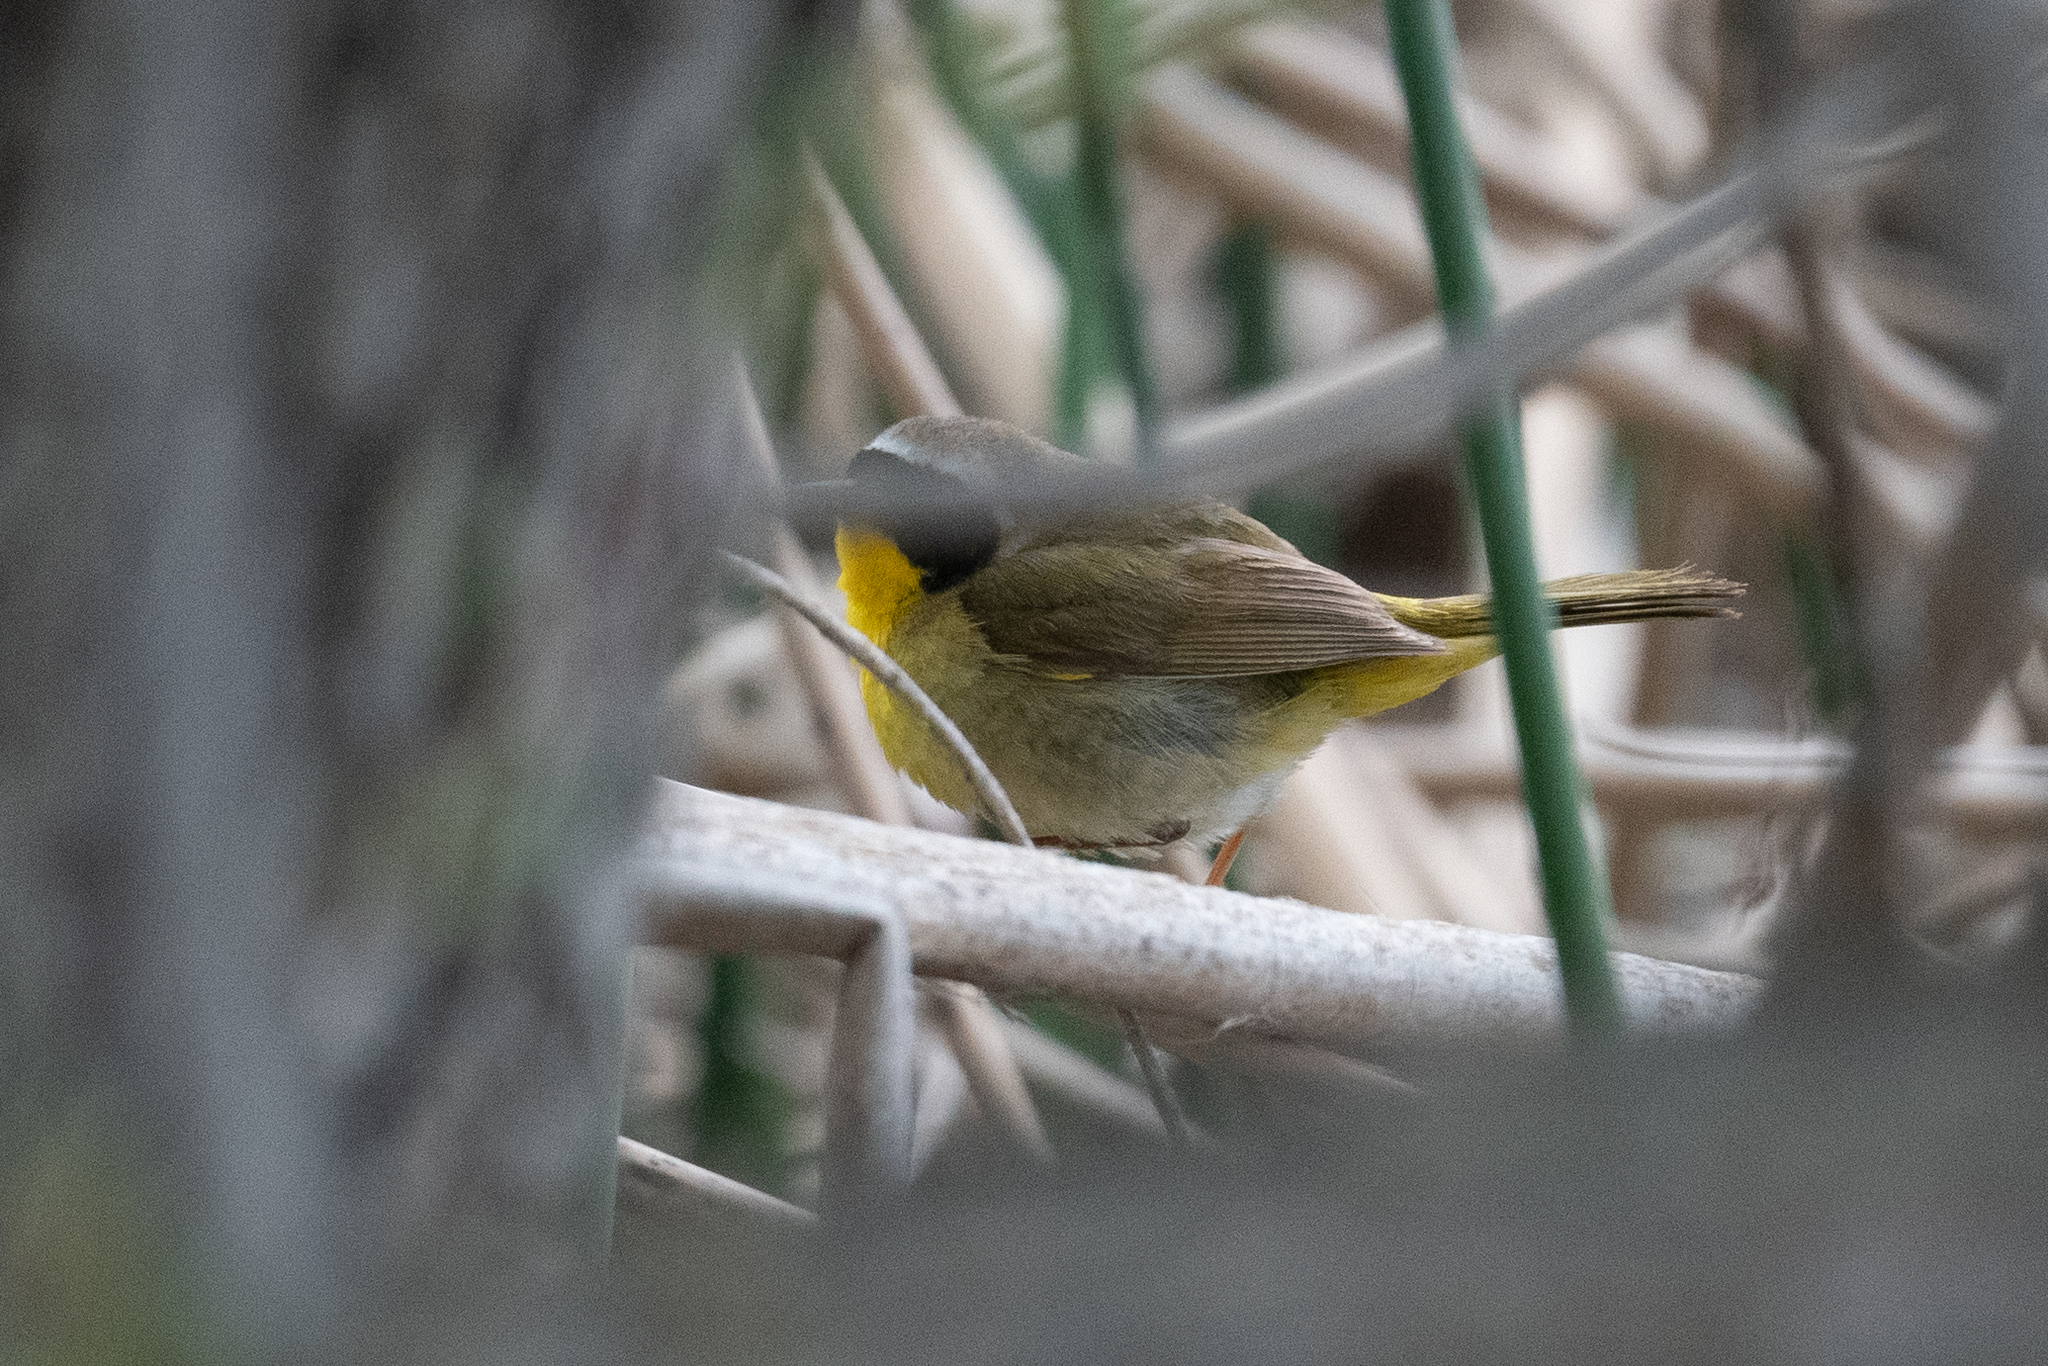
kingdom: Animalia
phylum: Chordata
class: Aves
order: Passeriformes
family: Parulidae
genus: Geothlypis
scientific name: Geothlypis trichas
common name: Common yellowthroat
